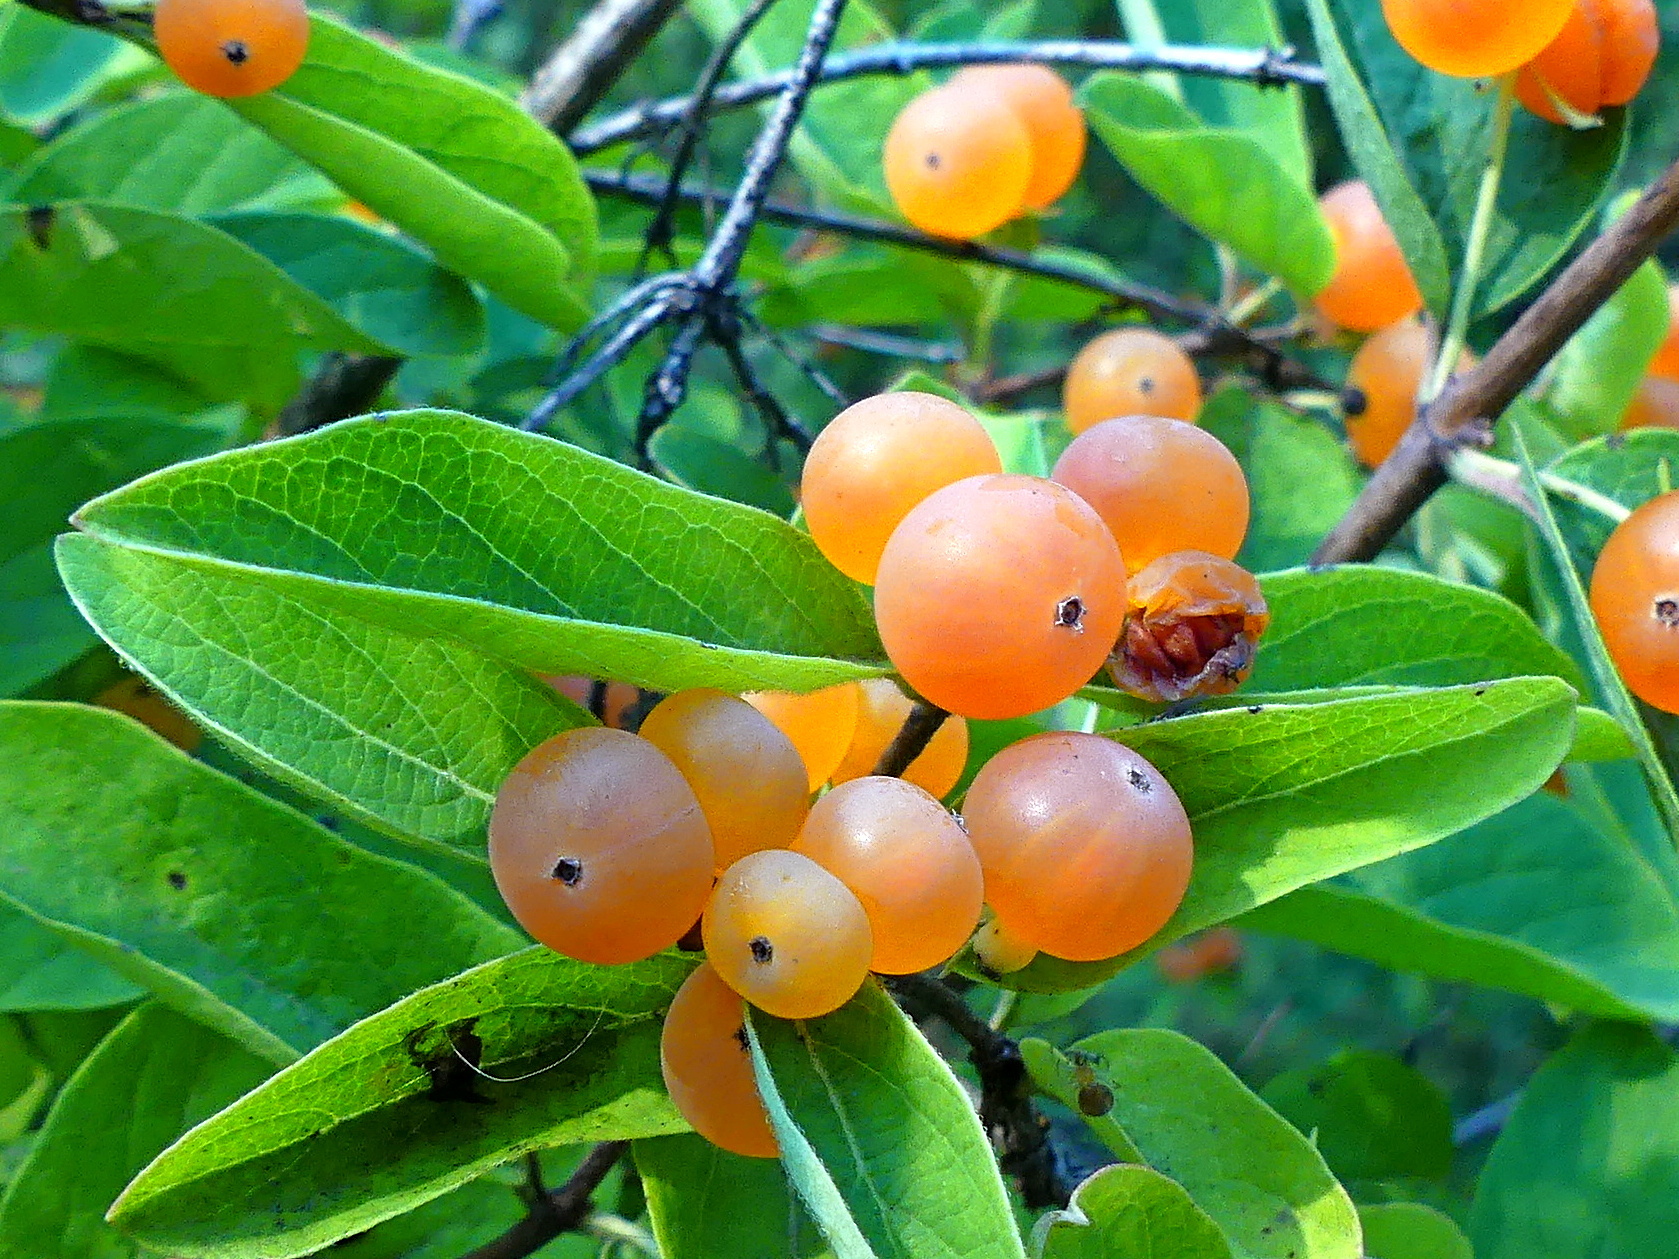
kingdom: Plantae
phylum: Tracheophyta
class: Magnoliopsida
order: Dipsacales
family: Caprifoliaceae
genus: Lonicera
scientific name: Lonicera tatarica
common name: Tatarian honeysuckle
